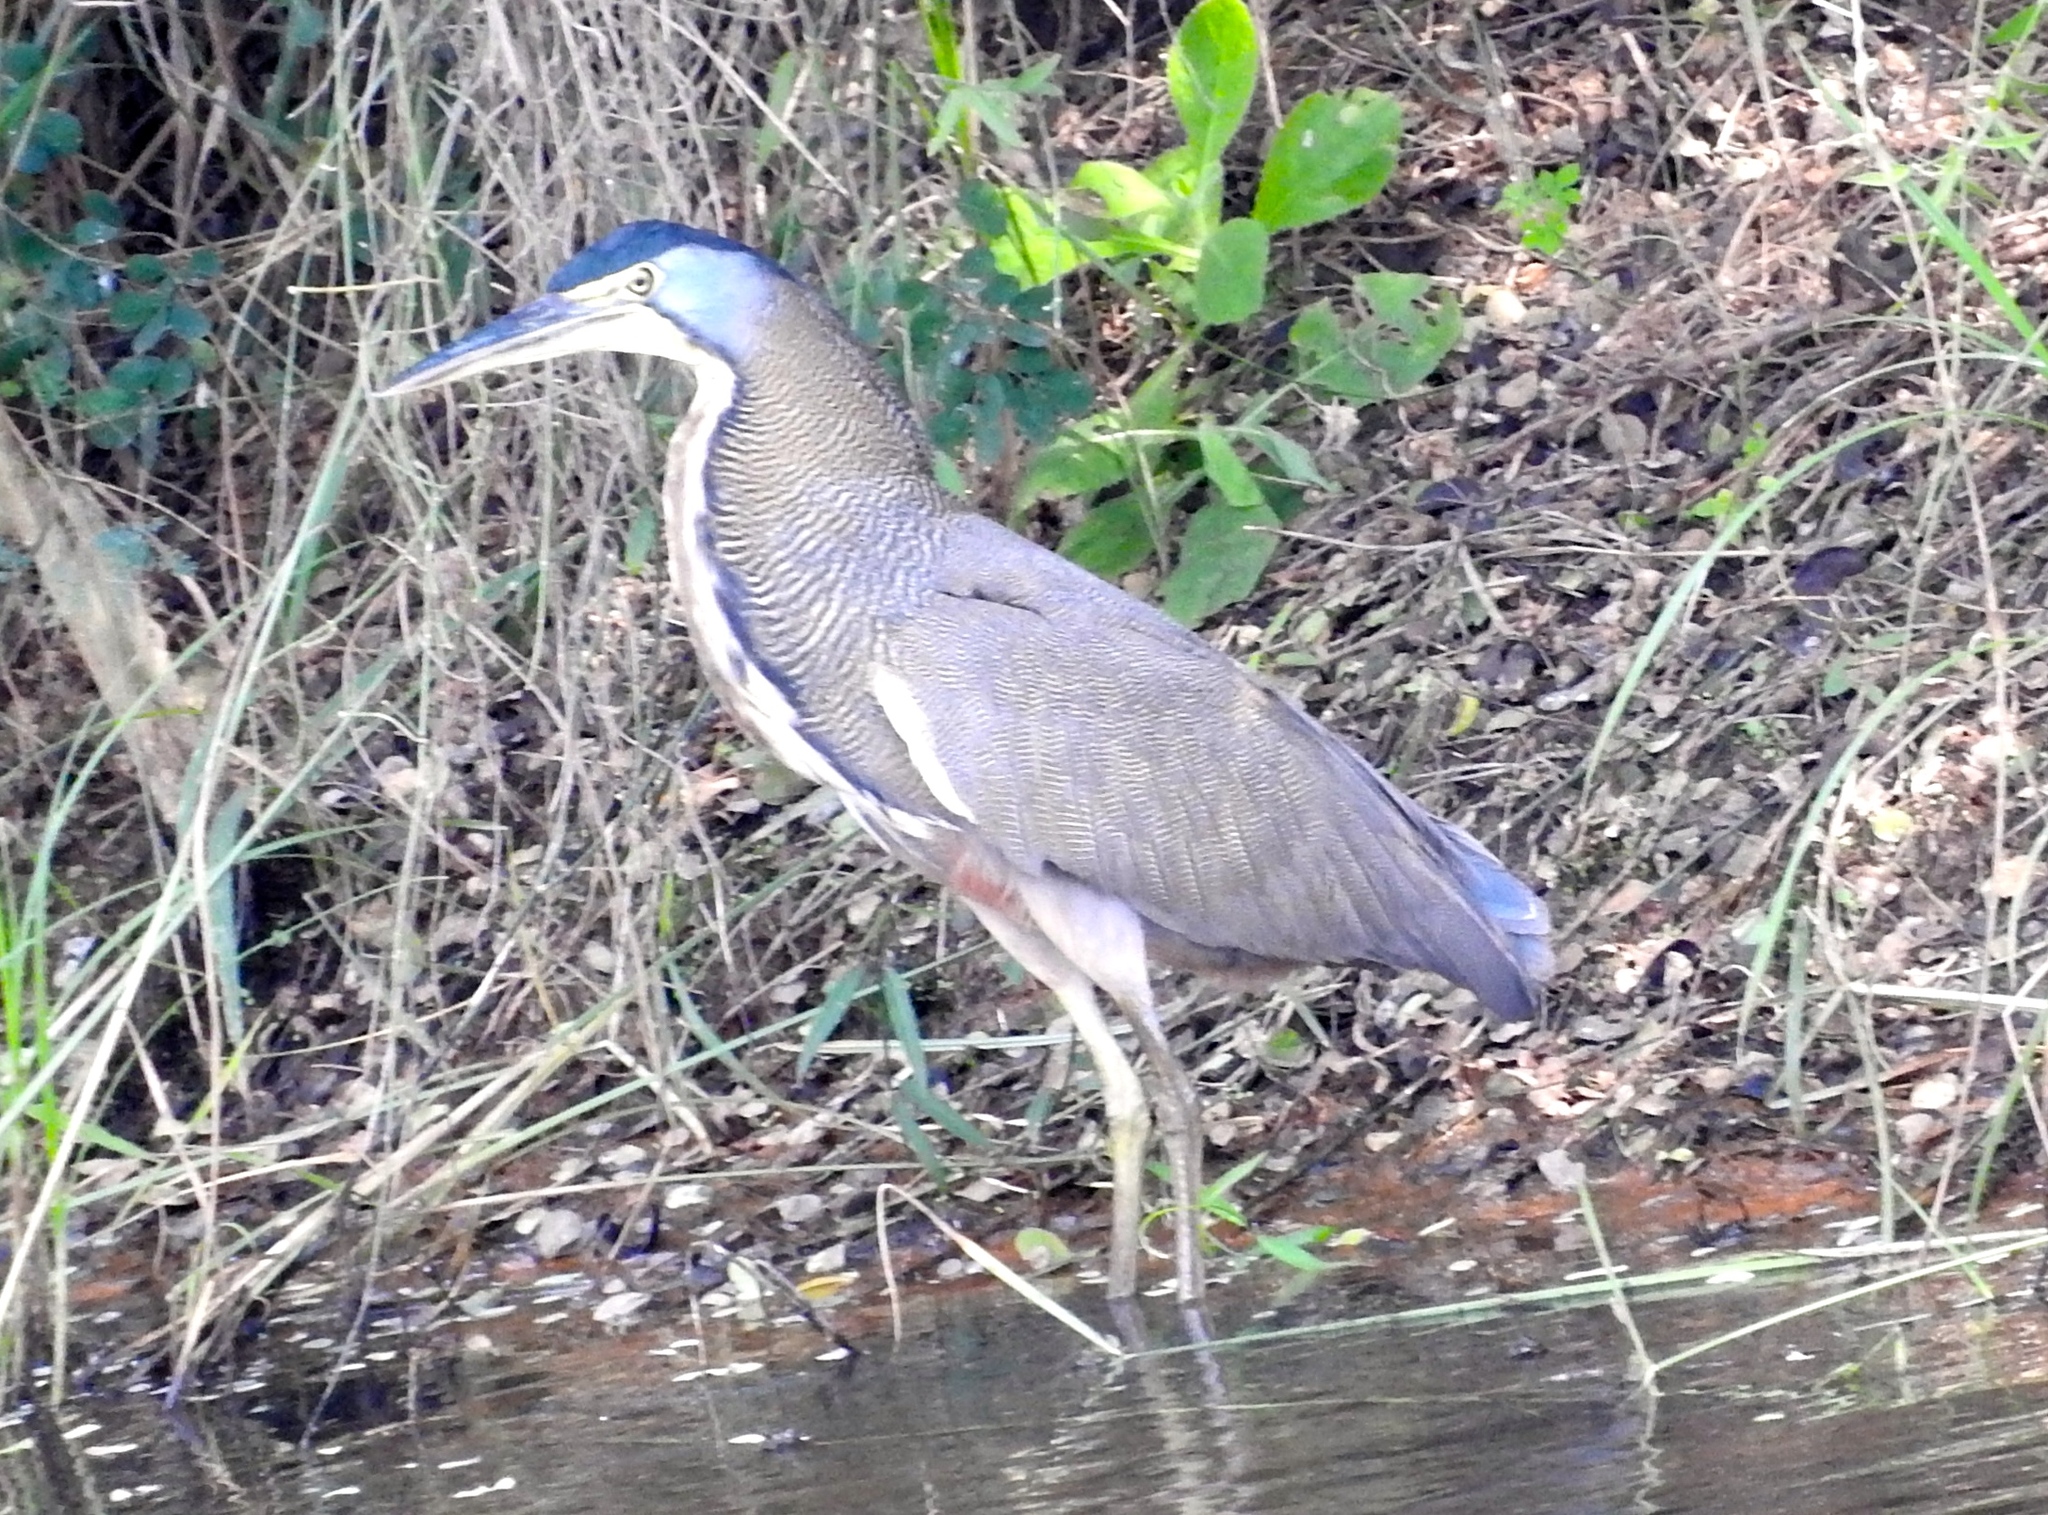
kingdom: Animalia
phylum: Chordata
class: Aves
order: Pelecaniformes
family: Ardeidae
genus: Tigrisoma
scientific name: Tigrisoma mexicanum
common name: Bare-throated tiger-heron
